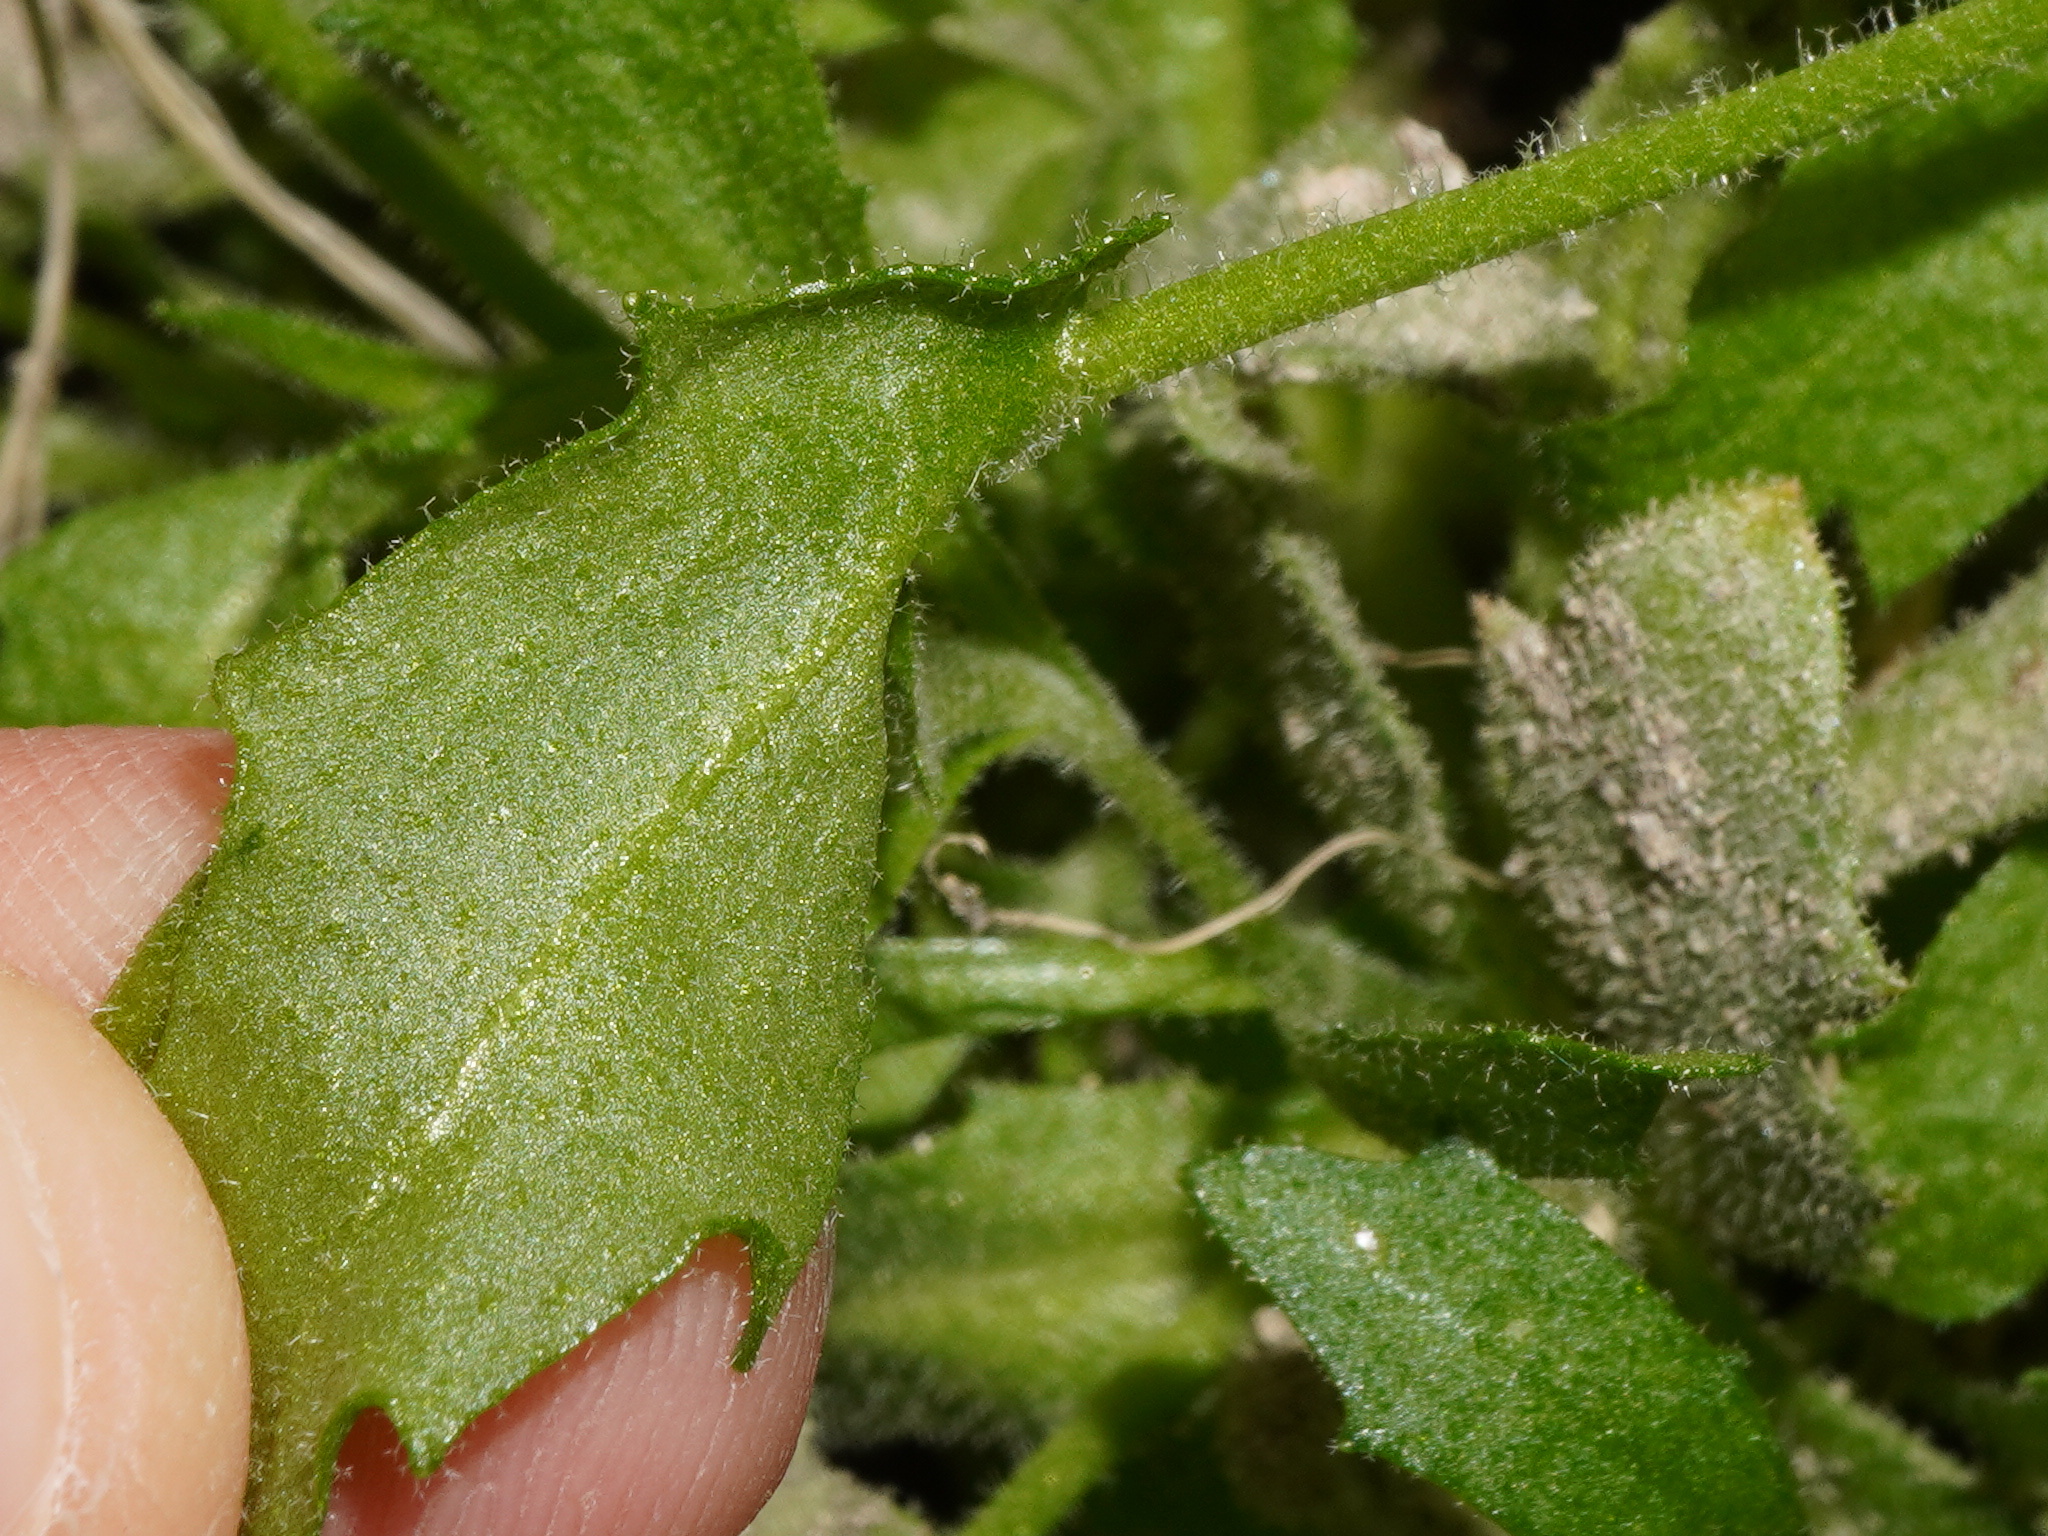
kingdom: Plantae
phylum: Tracheophyta
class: Magnoliopsida
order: Brassicales
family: Brassicaceae
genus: Arabis
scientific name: Arabis alpina
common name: Alpine rock-cress
